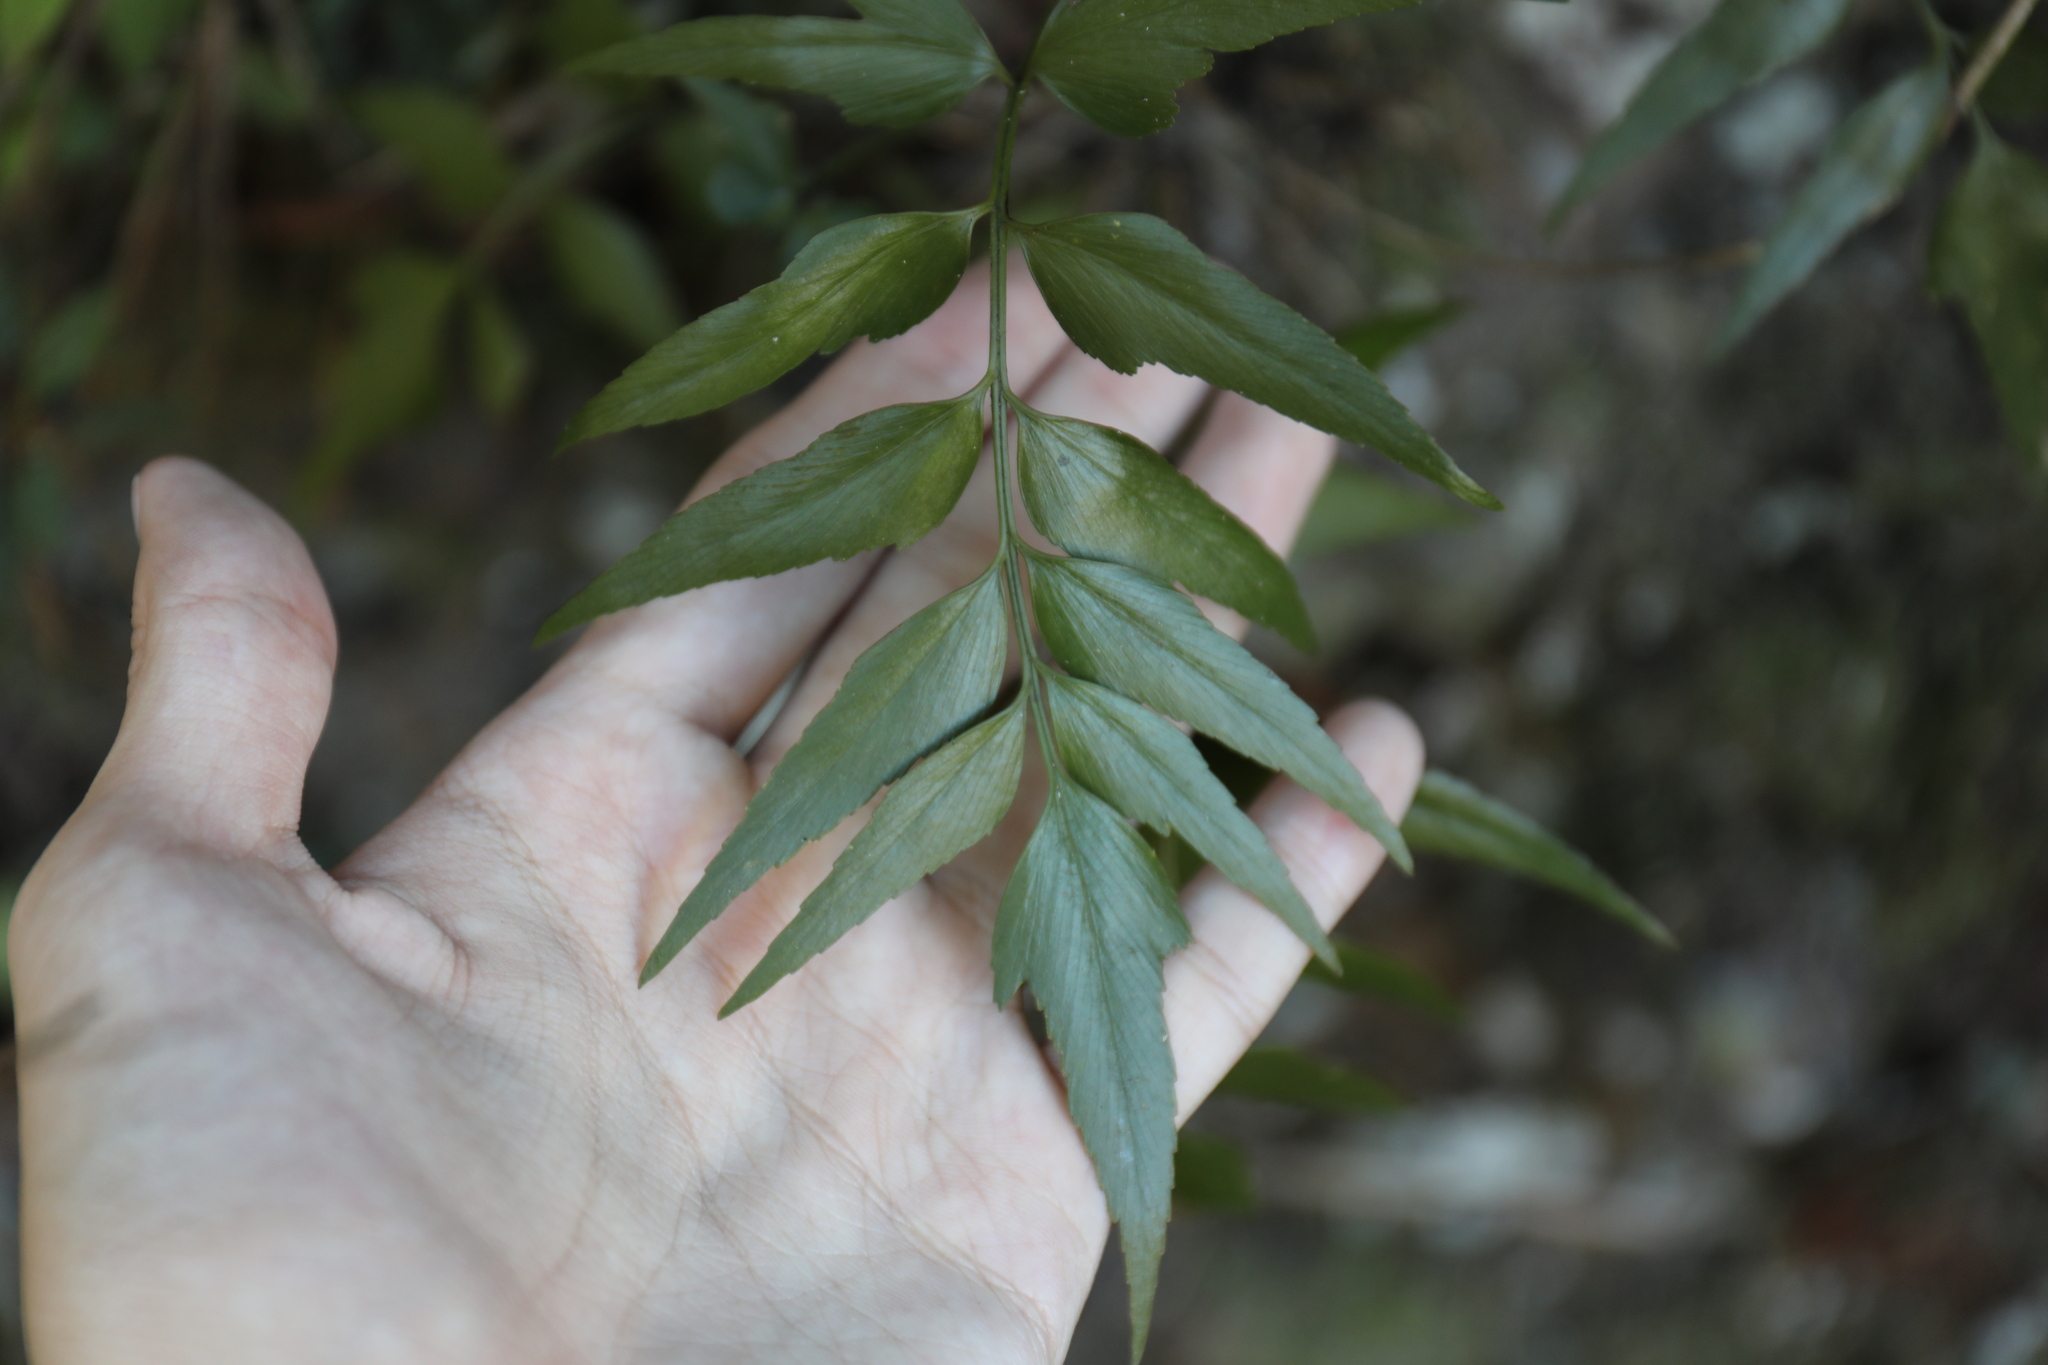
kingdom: Plantae
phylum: Tracheophyta
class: Polypodiopsida
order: Polypodiales
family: Aspleniaceae
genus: Asplenium
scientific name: Asplenium falcatum
